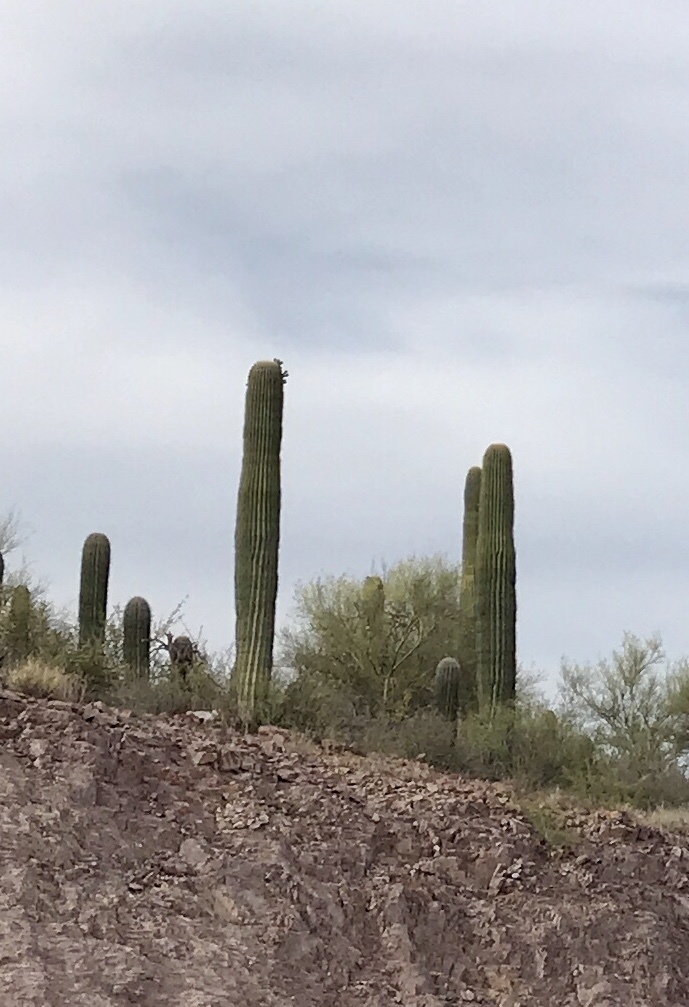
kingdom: Plantae
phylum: Tracheophyta
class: Magnoliopsida
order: Caryophyllales
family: Cactaceae
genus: Carnegiea
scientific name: Carnegiea gigantea
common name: Saguaro
